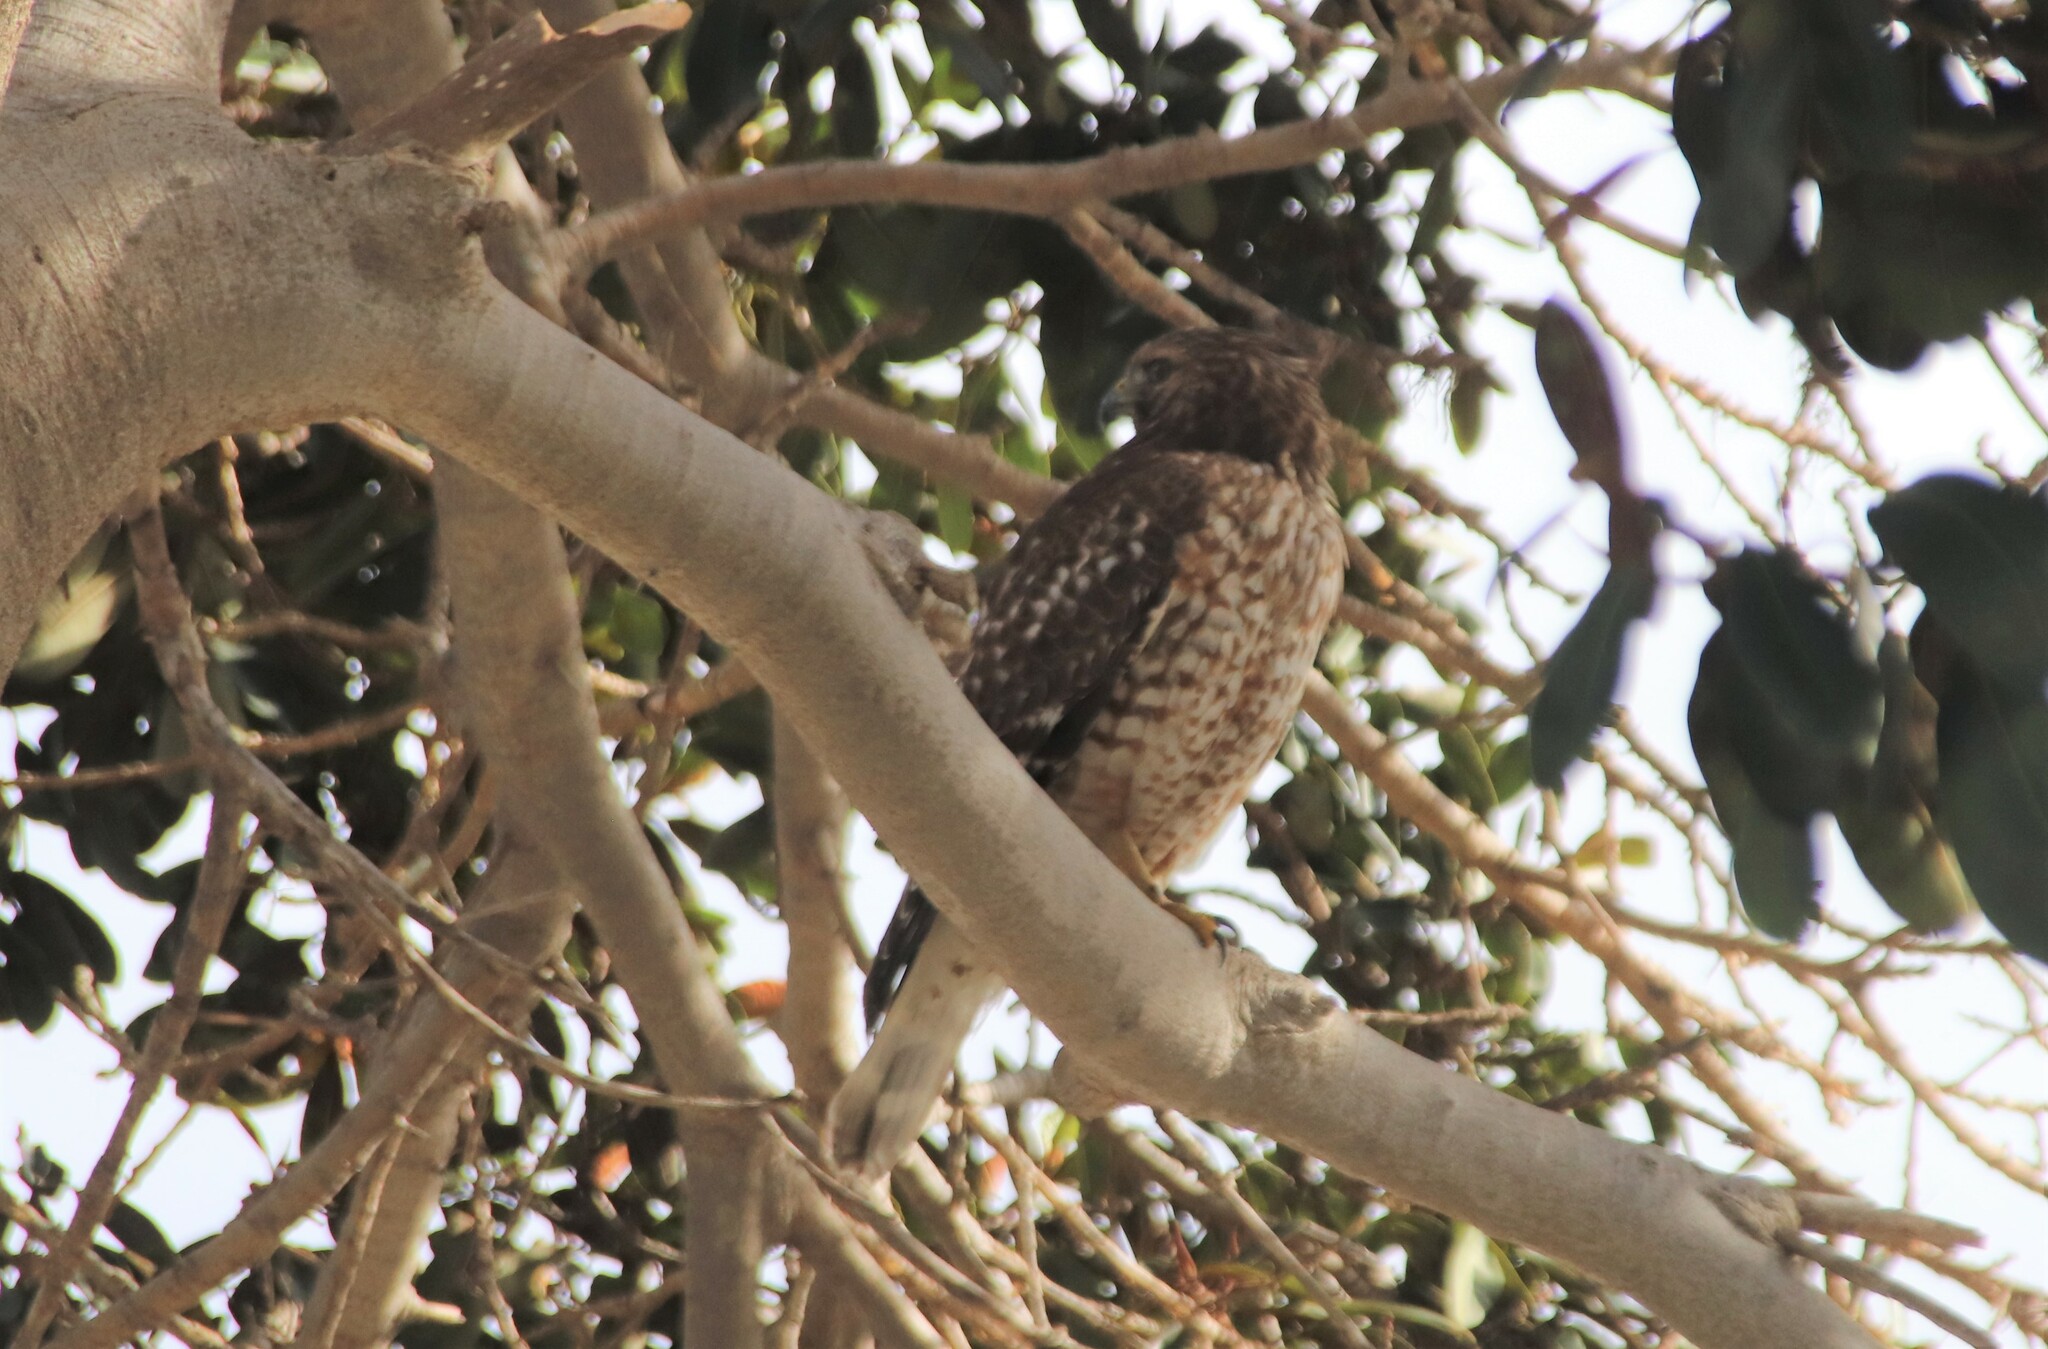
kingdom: Animalia
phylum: Chordata
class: Aves
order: Accipitriformes
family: Accipitridae
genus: Buteo
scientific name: Buteo lineatus
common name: Red-shouldered hawk
